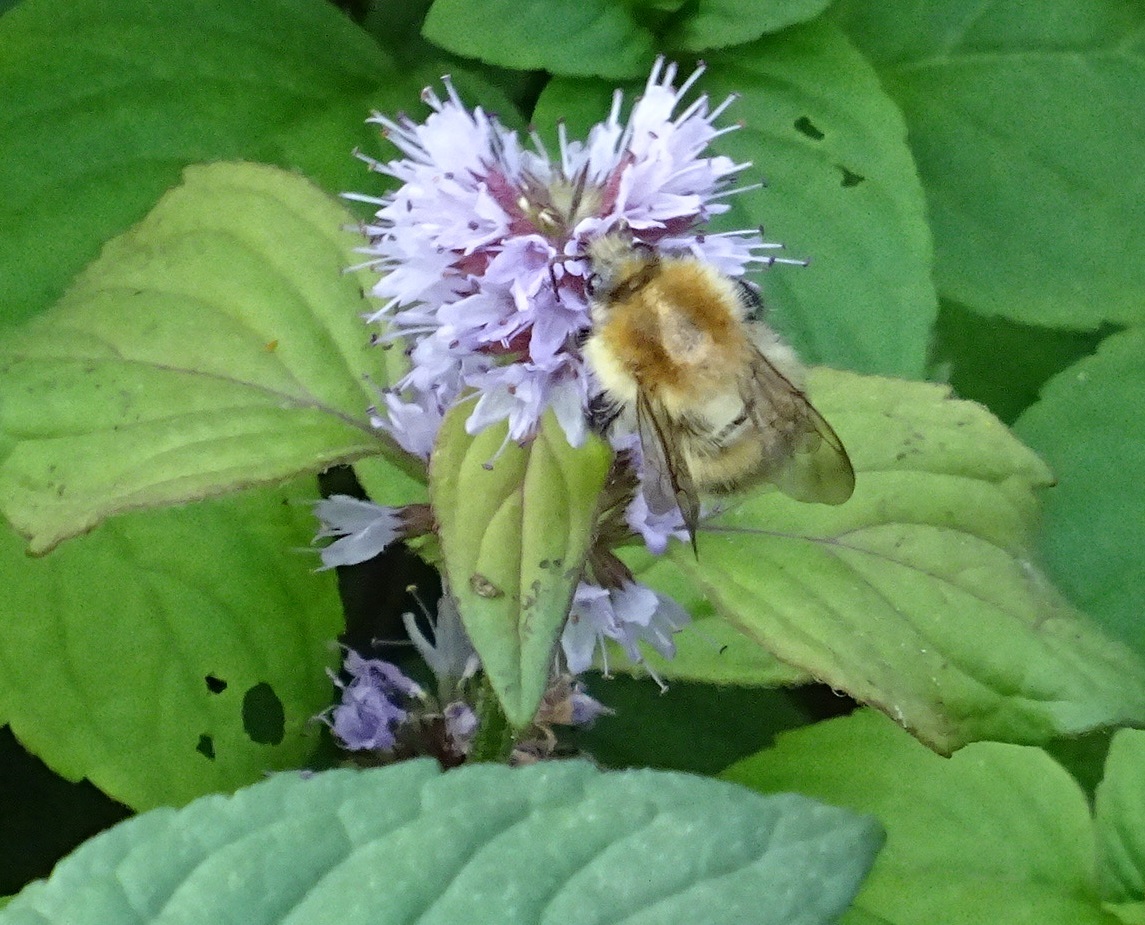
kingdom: Animalia
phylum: Arthropoda
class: Insecta
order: Hymenoptera
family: Apidae
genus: Bombus
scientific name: Bombus pascuorum
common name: Common carder bee
